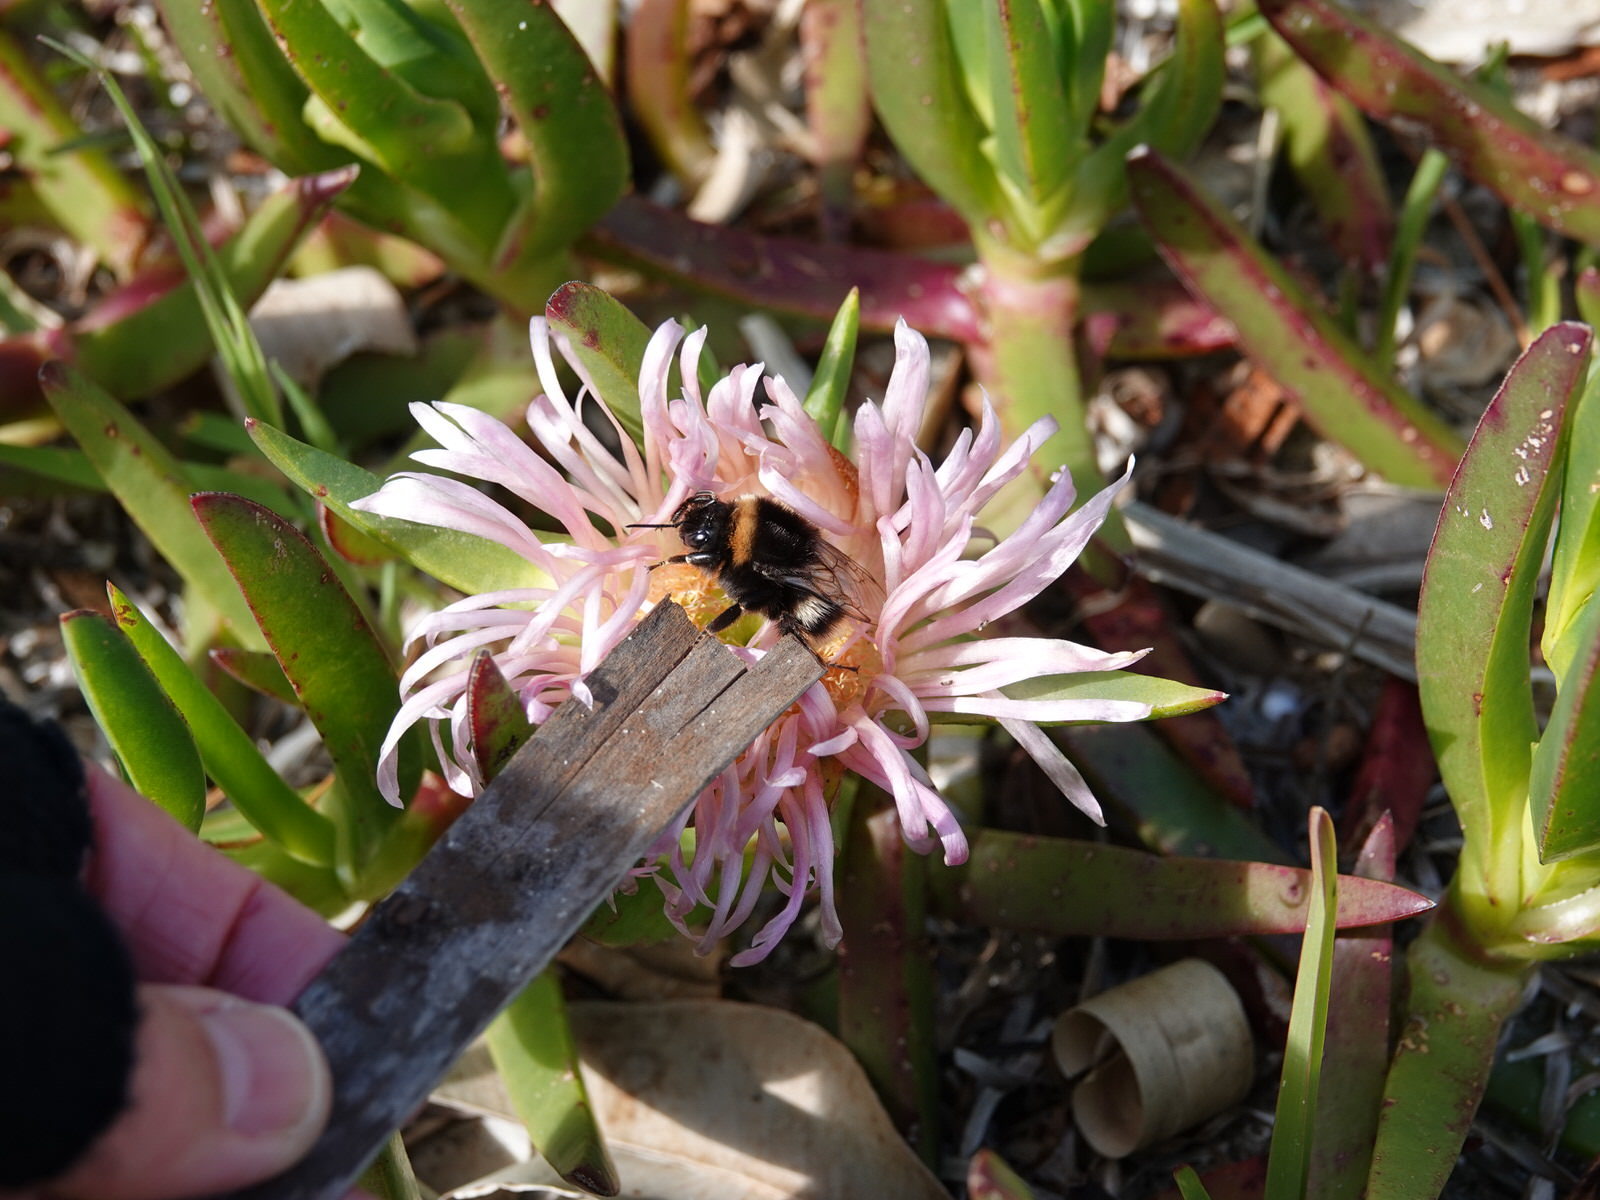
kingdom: Animalia
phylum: Arthropoda
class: Insecta
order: Hymenoptera
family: Apidae
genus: Bombus
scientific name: Bombus terrestris
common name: Buff-tailed bumblebee
